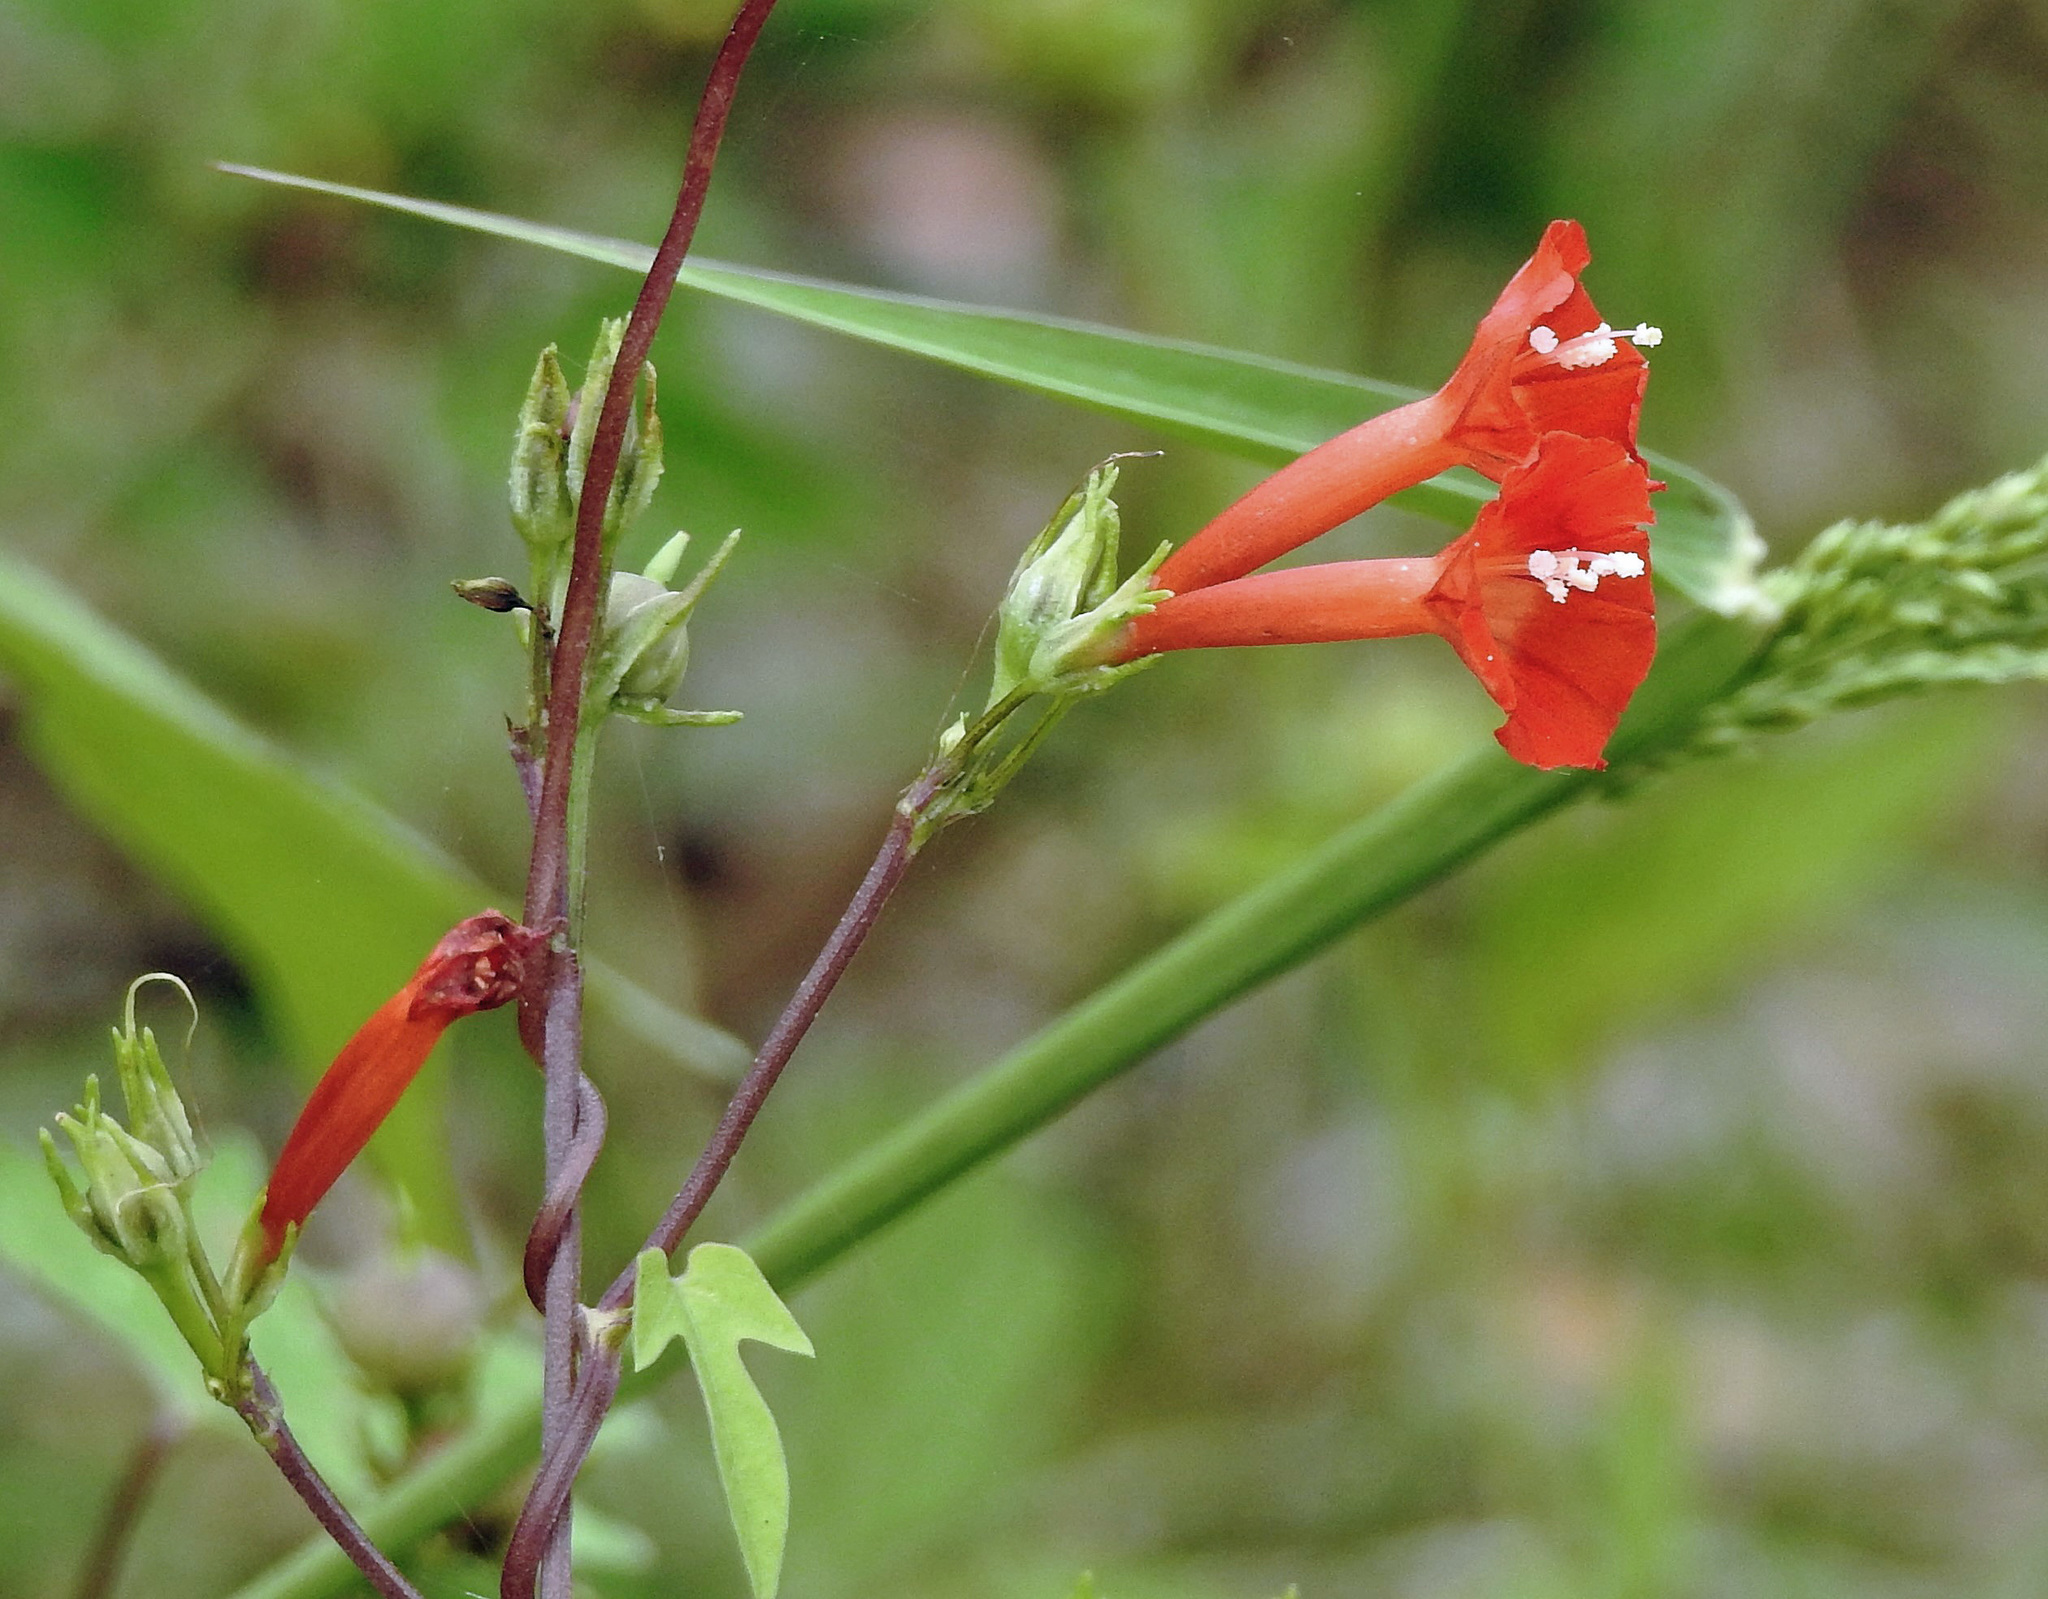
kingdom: Plantae
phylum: Tracheophyta
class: Magnoliopsida
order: Solanales
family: Convolvulaceae
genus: Ipomoea
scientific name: Ipomoea rubriflora
